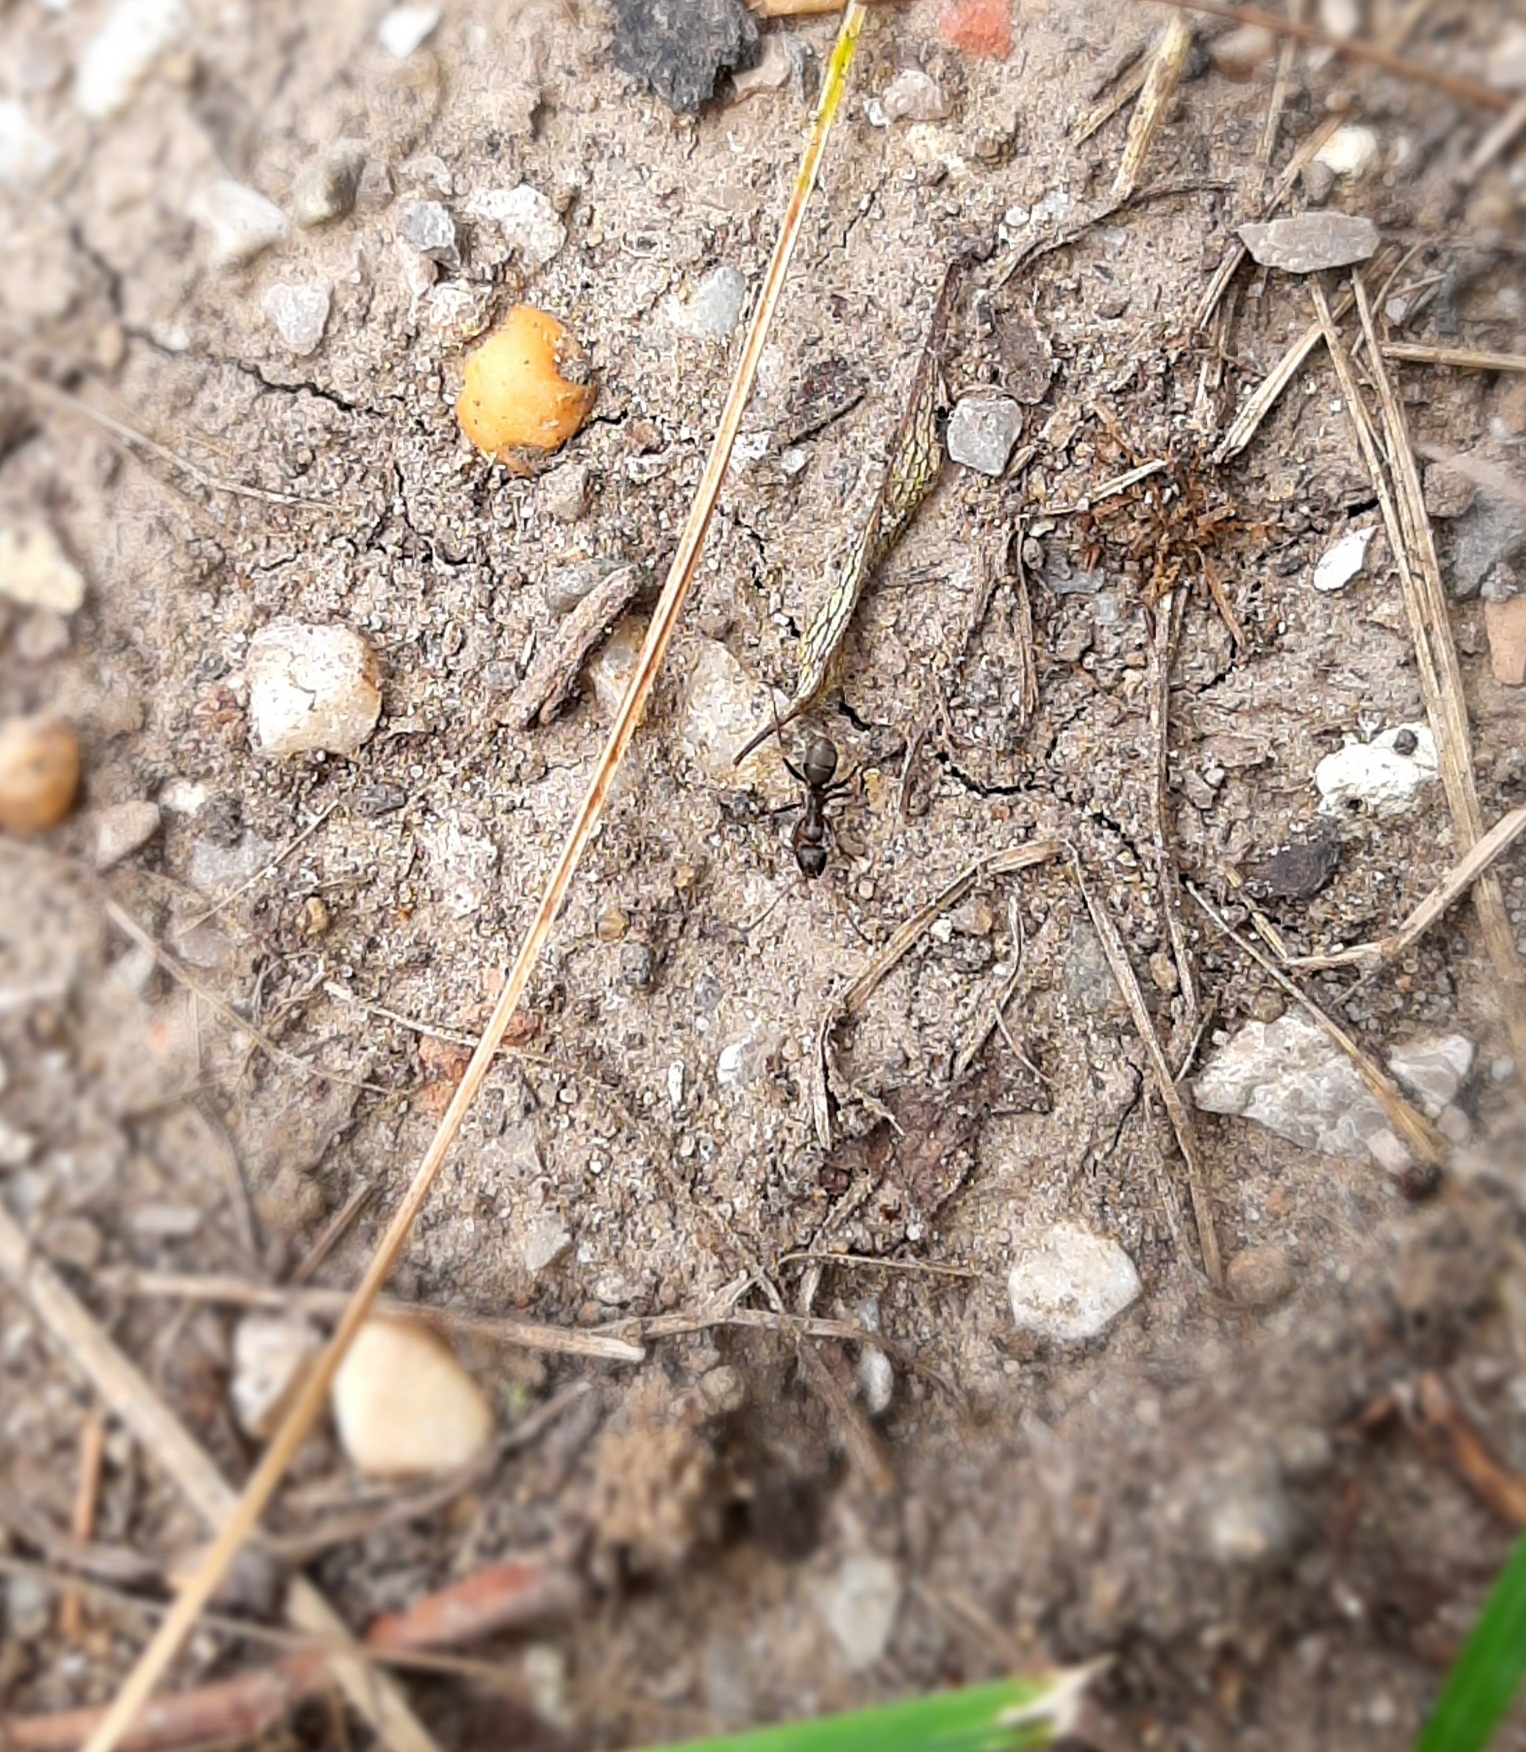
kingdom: Animalia
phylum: Arthropoda
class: Insecta
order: Hymenoptera
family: Formicidae
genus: Formica
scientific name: Formica
